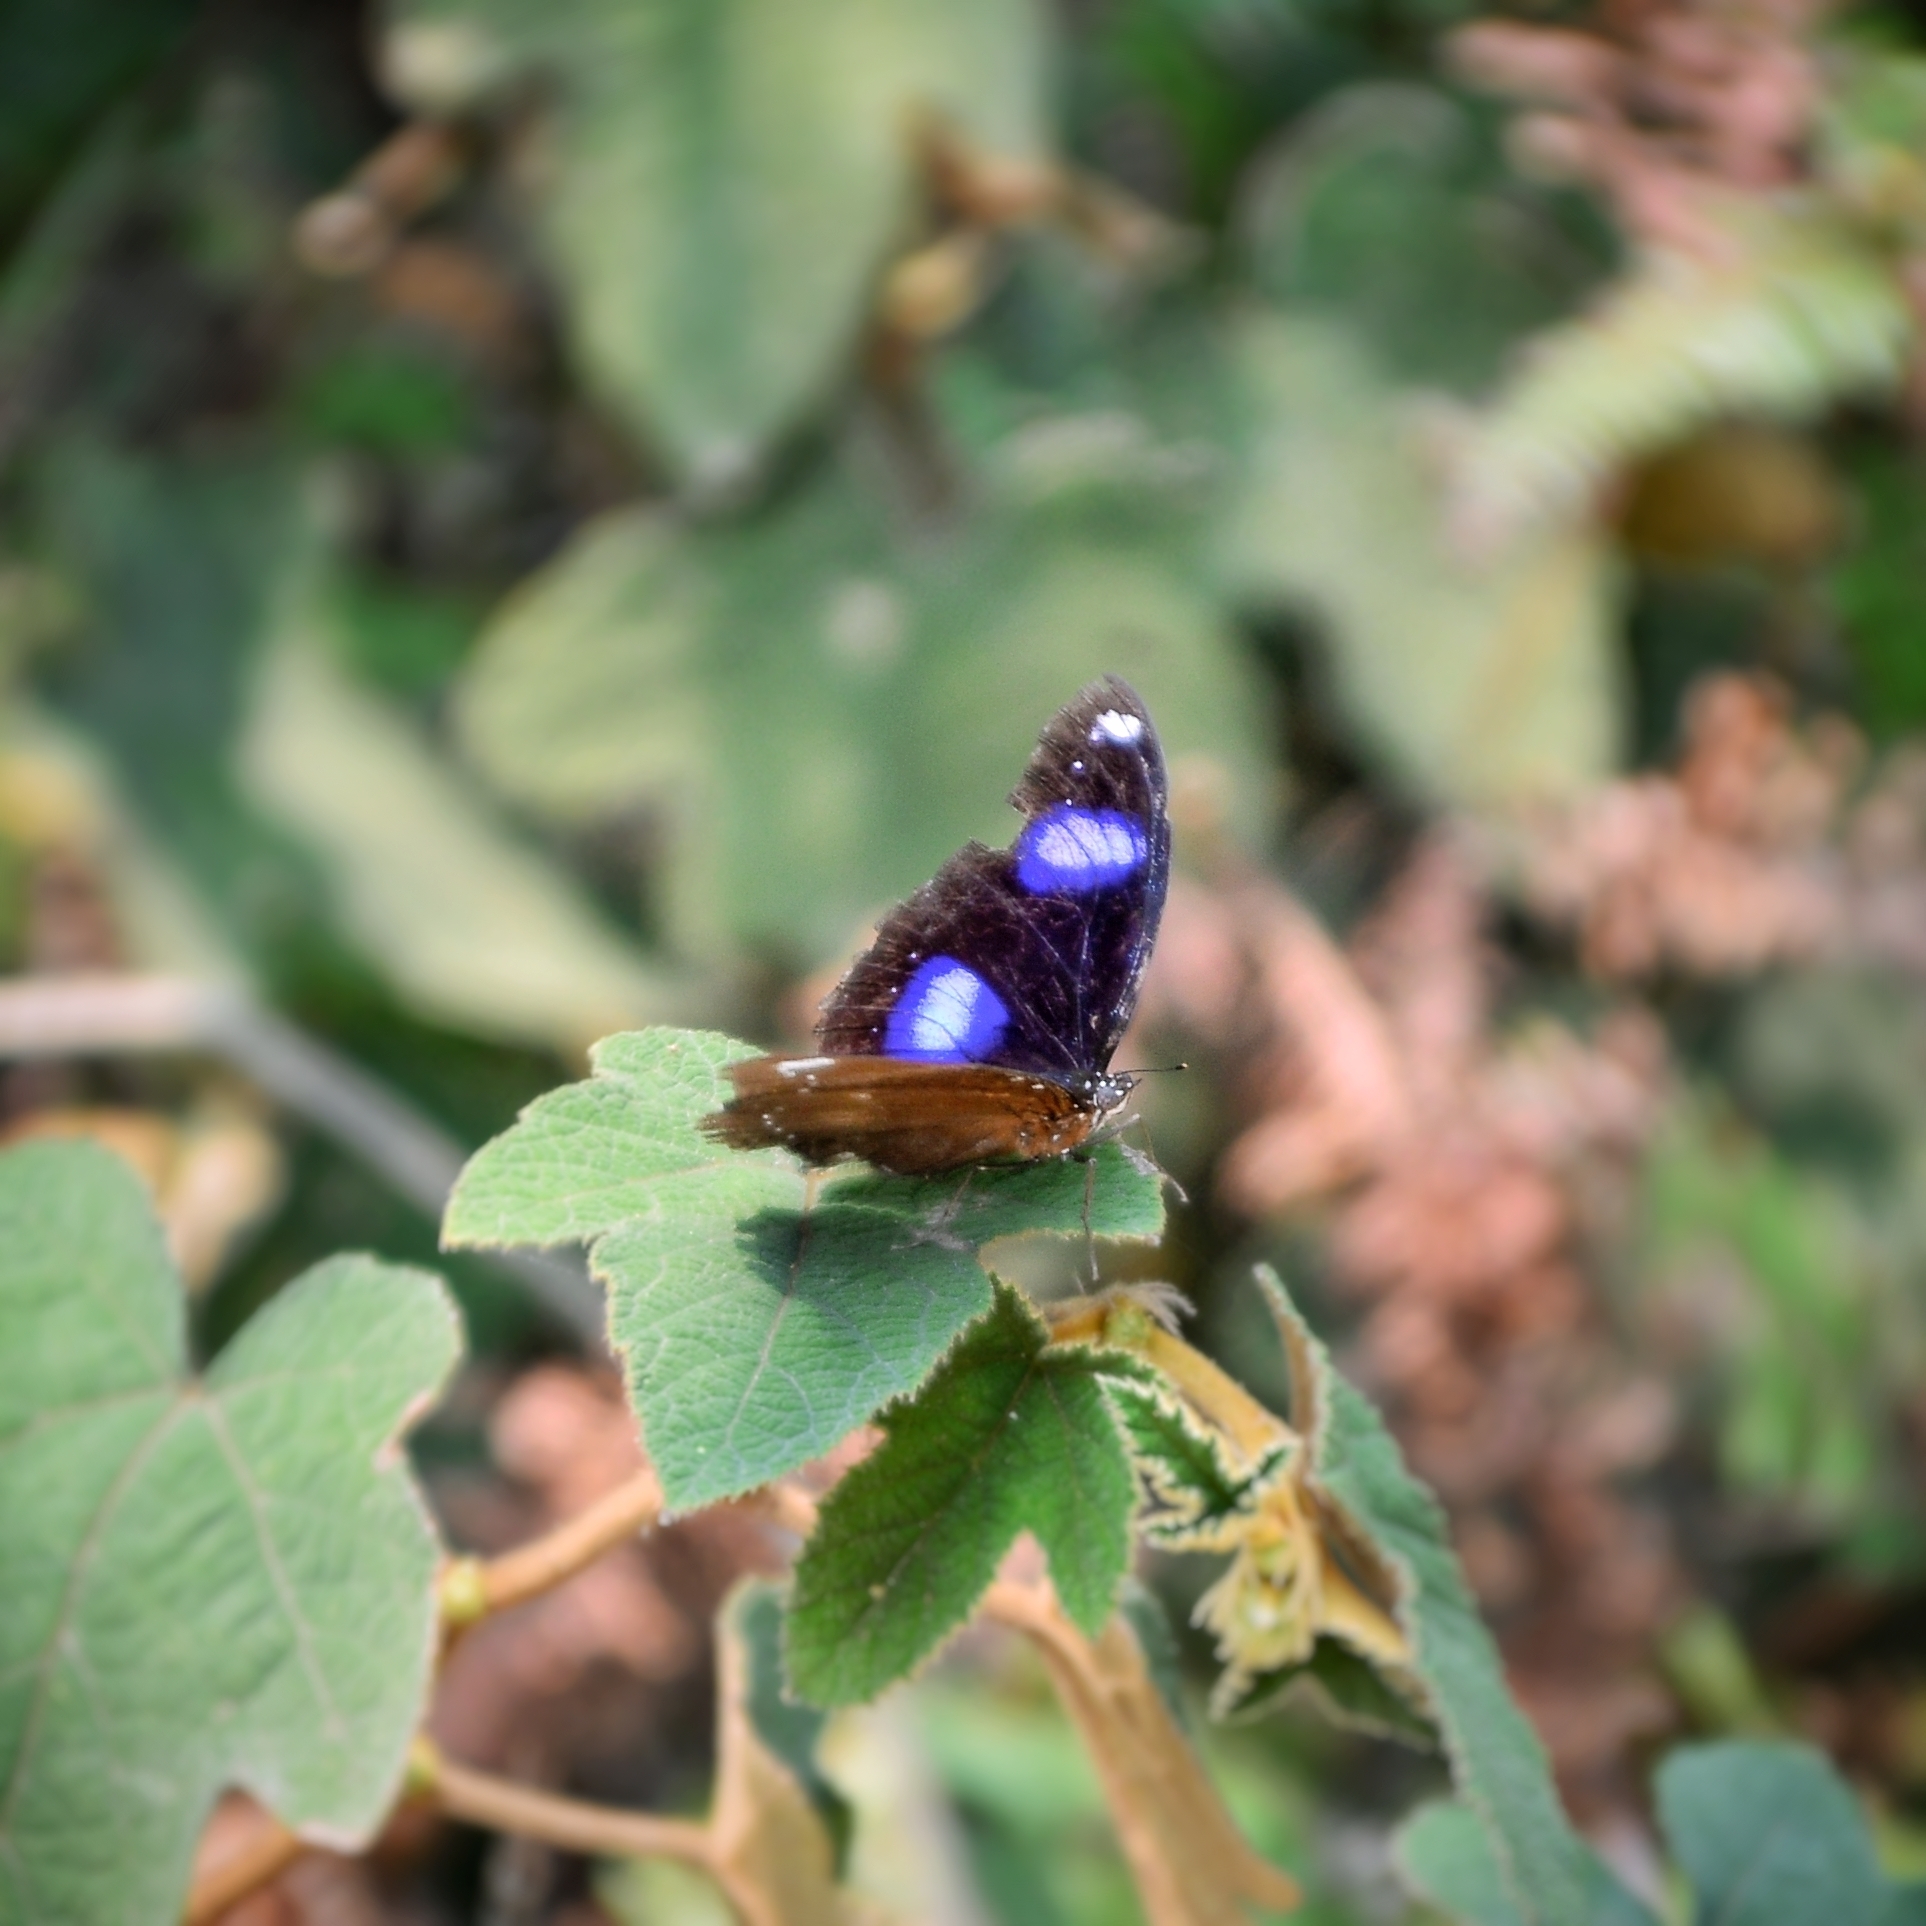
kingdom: Animalia
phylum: Arthropoda
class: Insecta
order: Lepidoptera
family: Nymphalidae
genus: Hypolimnas
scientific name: Hypolimnas bolina
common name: Great eggfly
